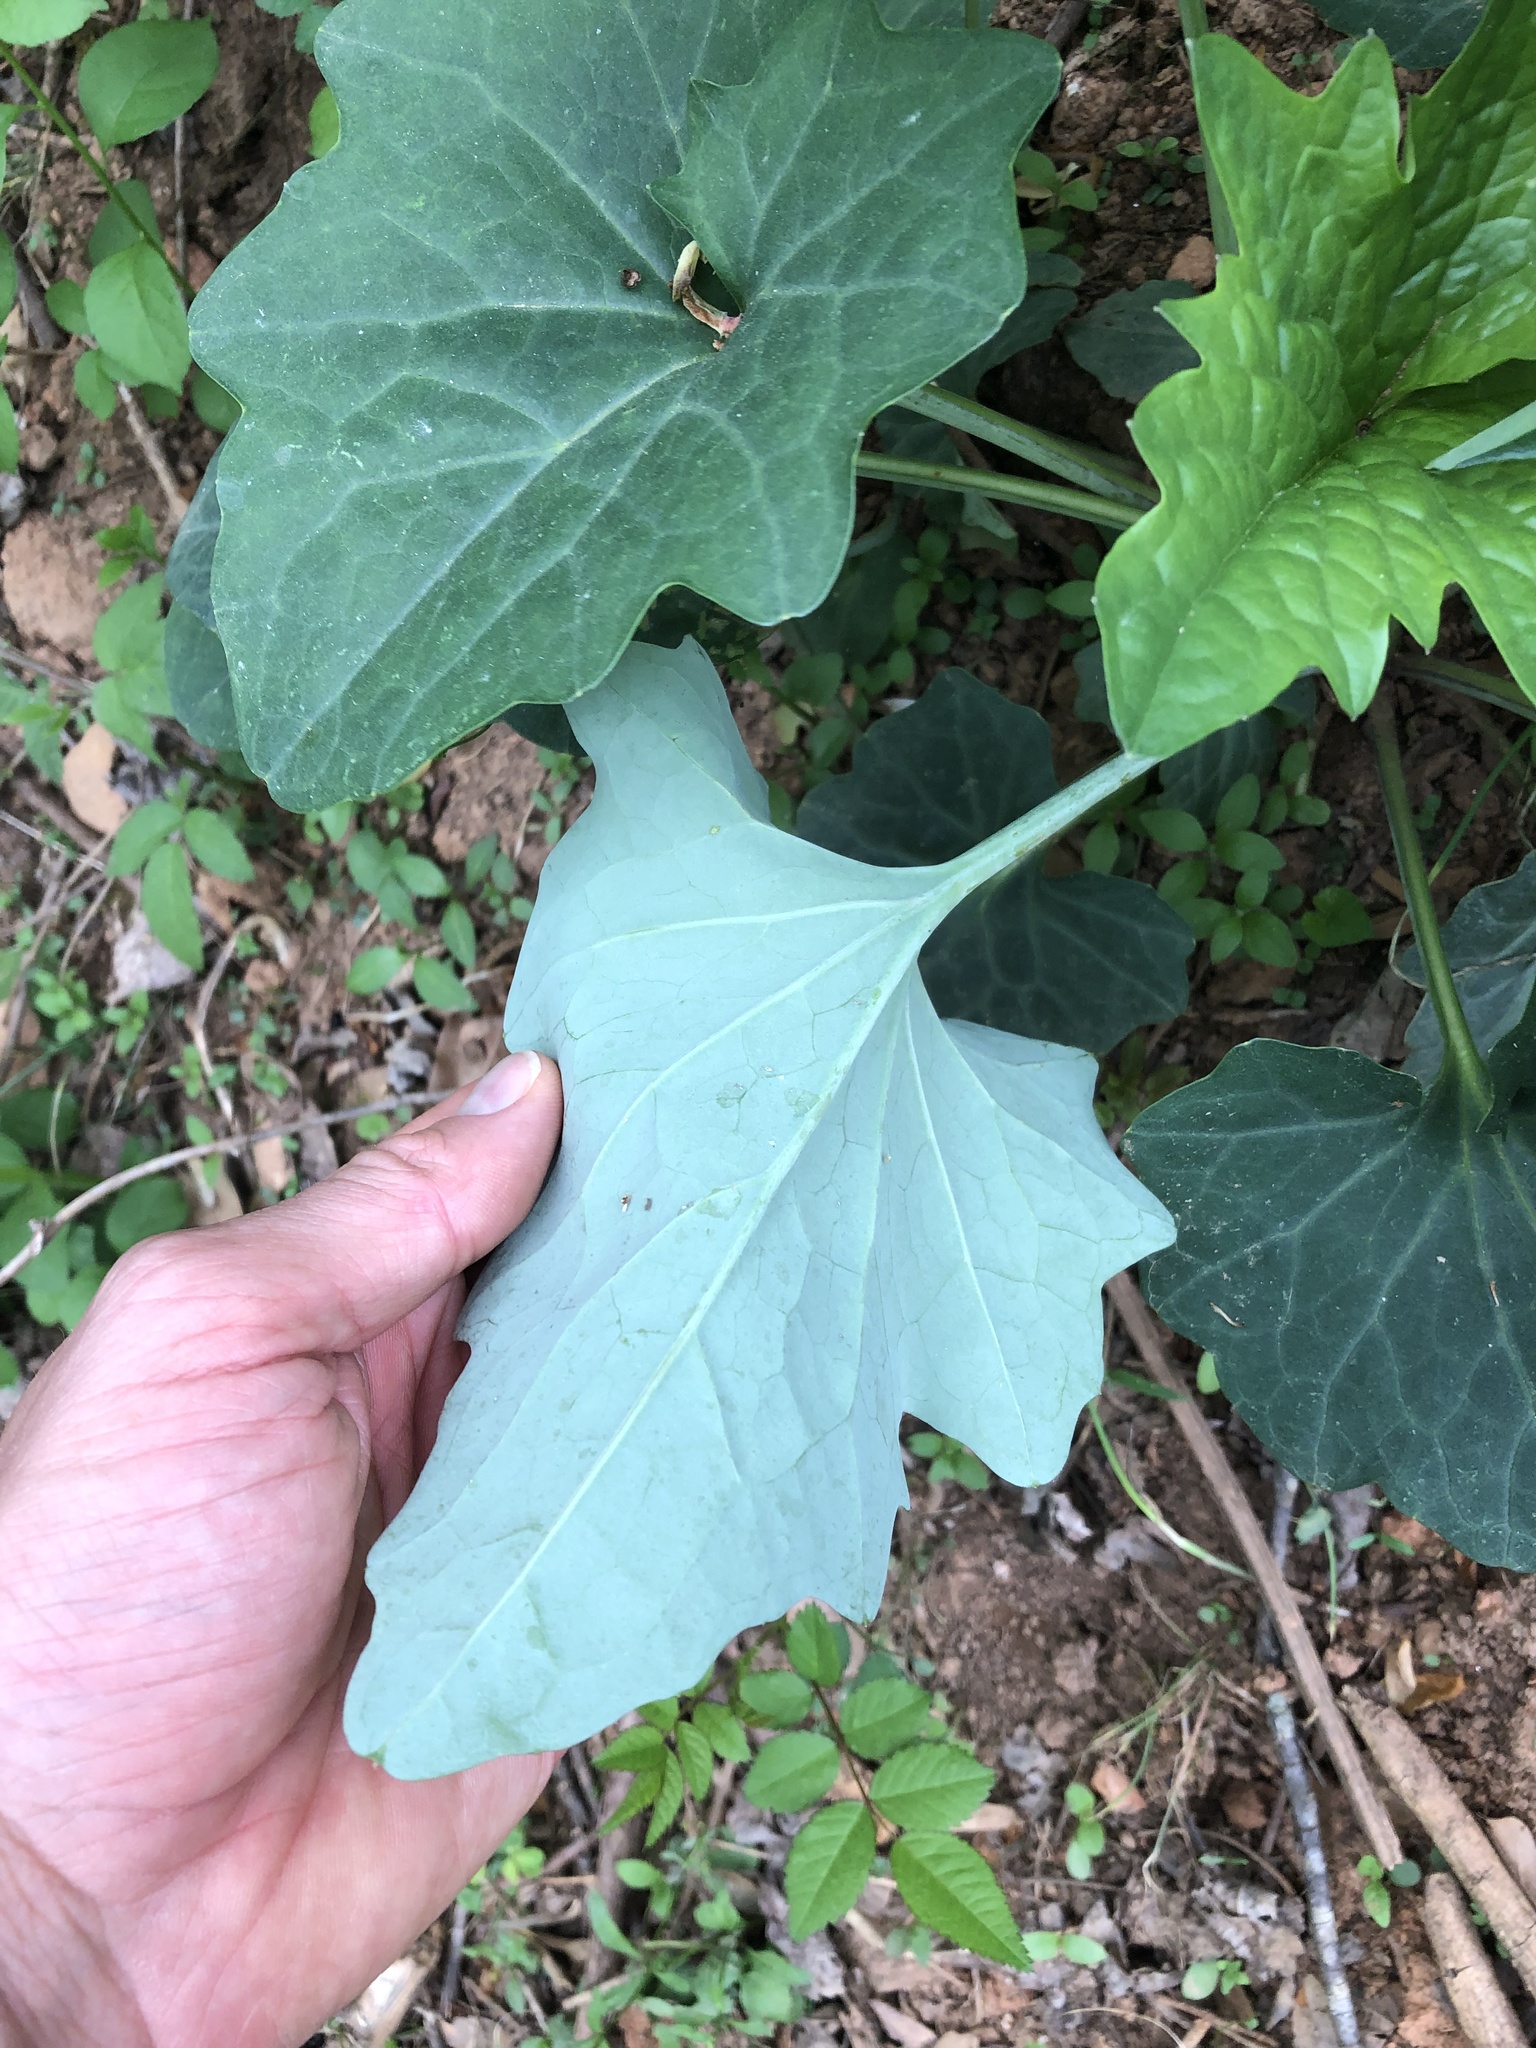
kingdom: Plantae
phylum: Tracheophyta
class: Magnoliopsida
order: Asterales
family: Asteraceae
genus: Arnoglossum
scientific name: Arnoglossum atriplicifolium
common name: Pale indian-plantain
